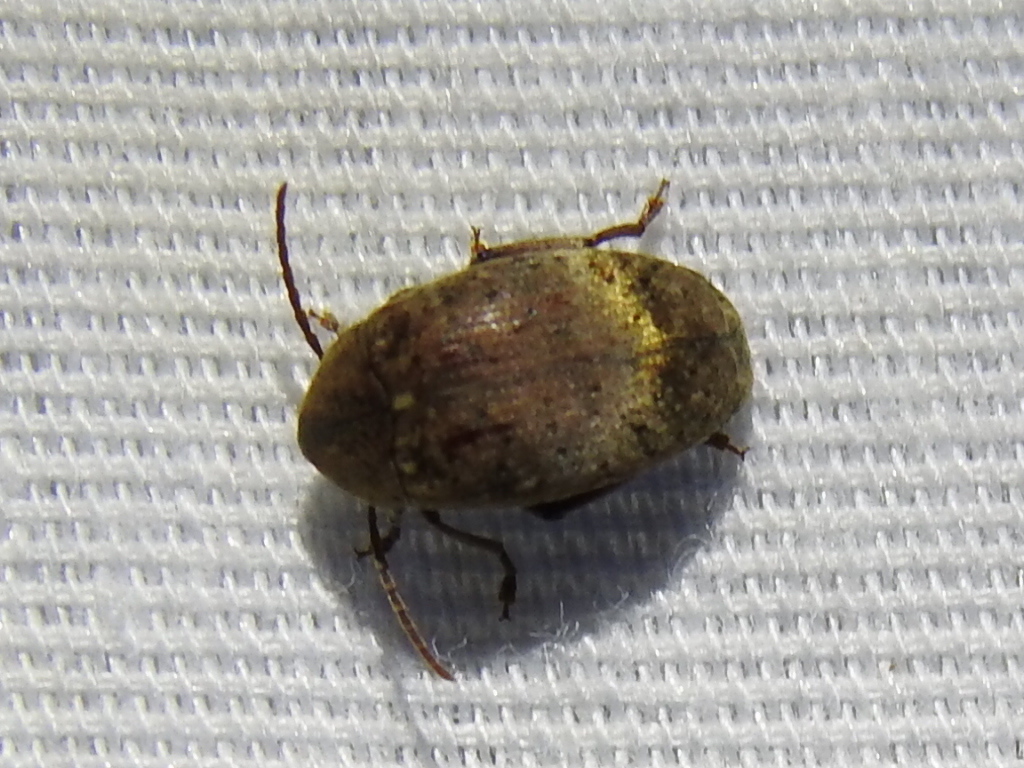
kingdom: Animalia
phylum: Arthropoda
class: Insecta
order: Coleoptera
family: Chrysomelidae
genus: Amblycerus
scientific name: Amblycerus robiniae
